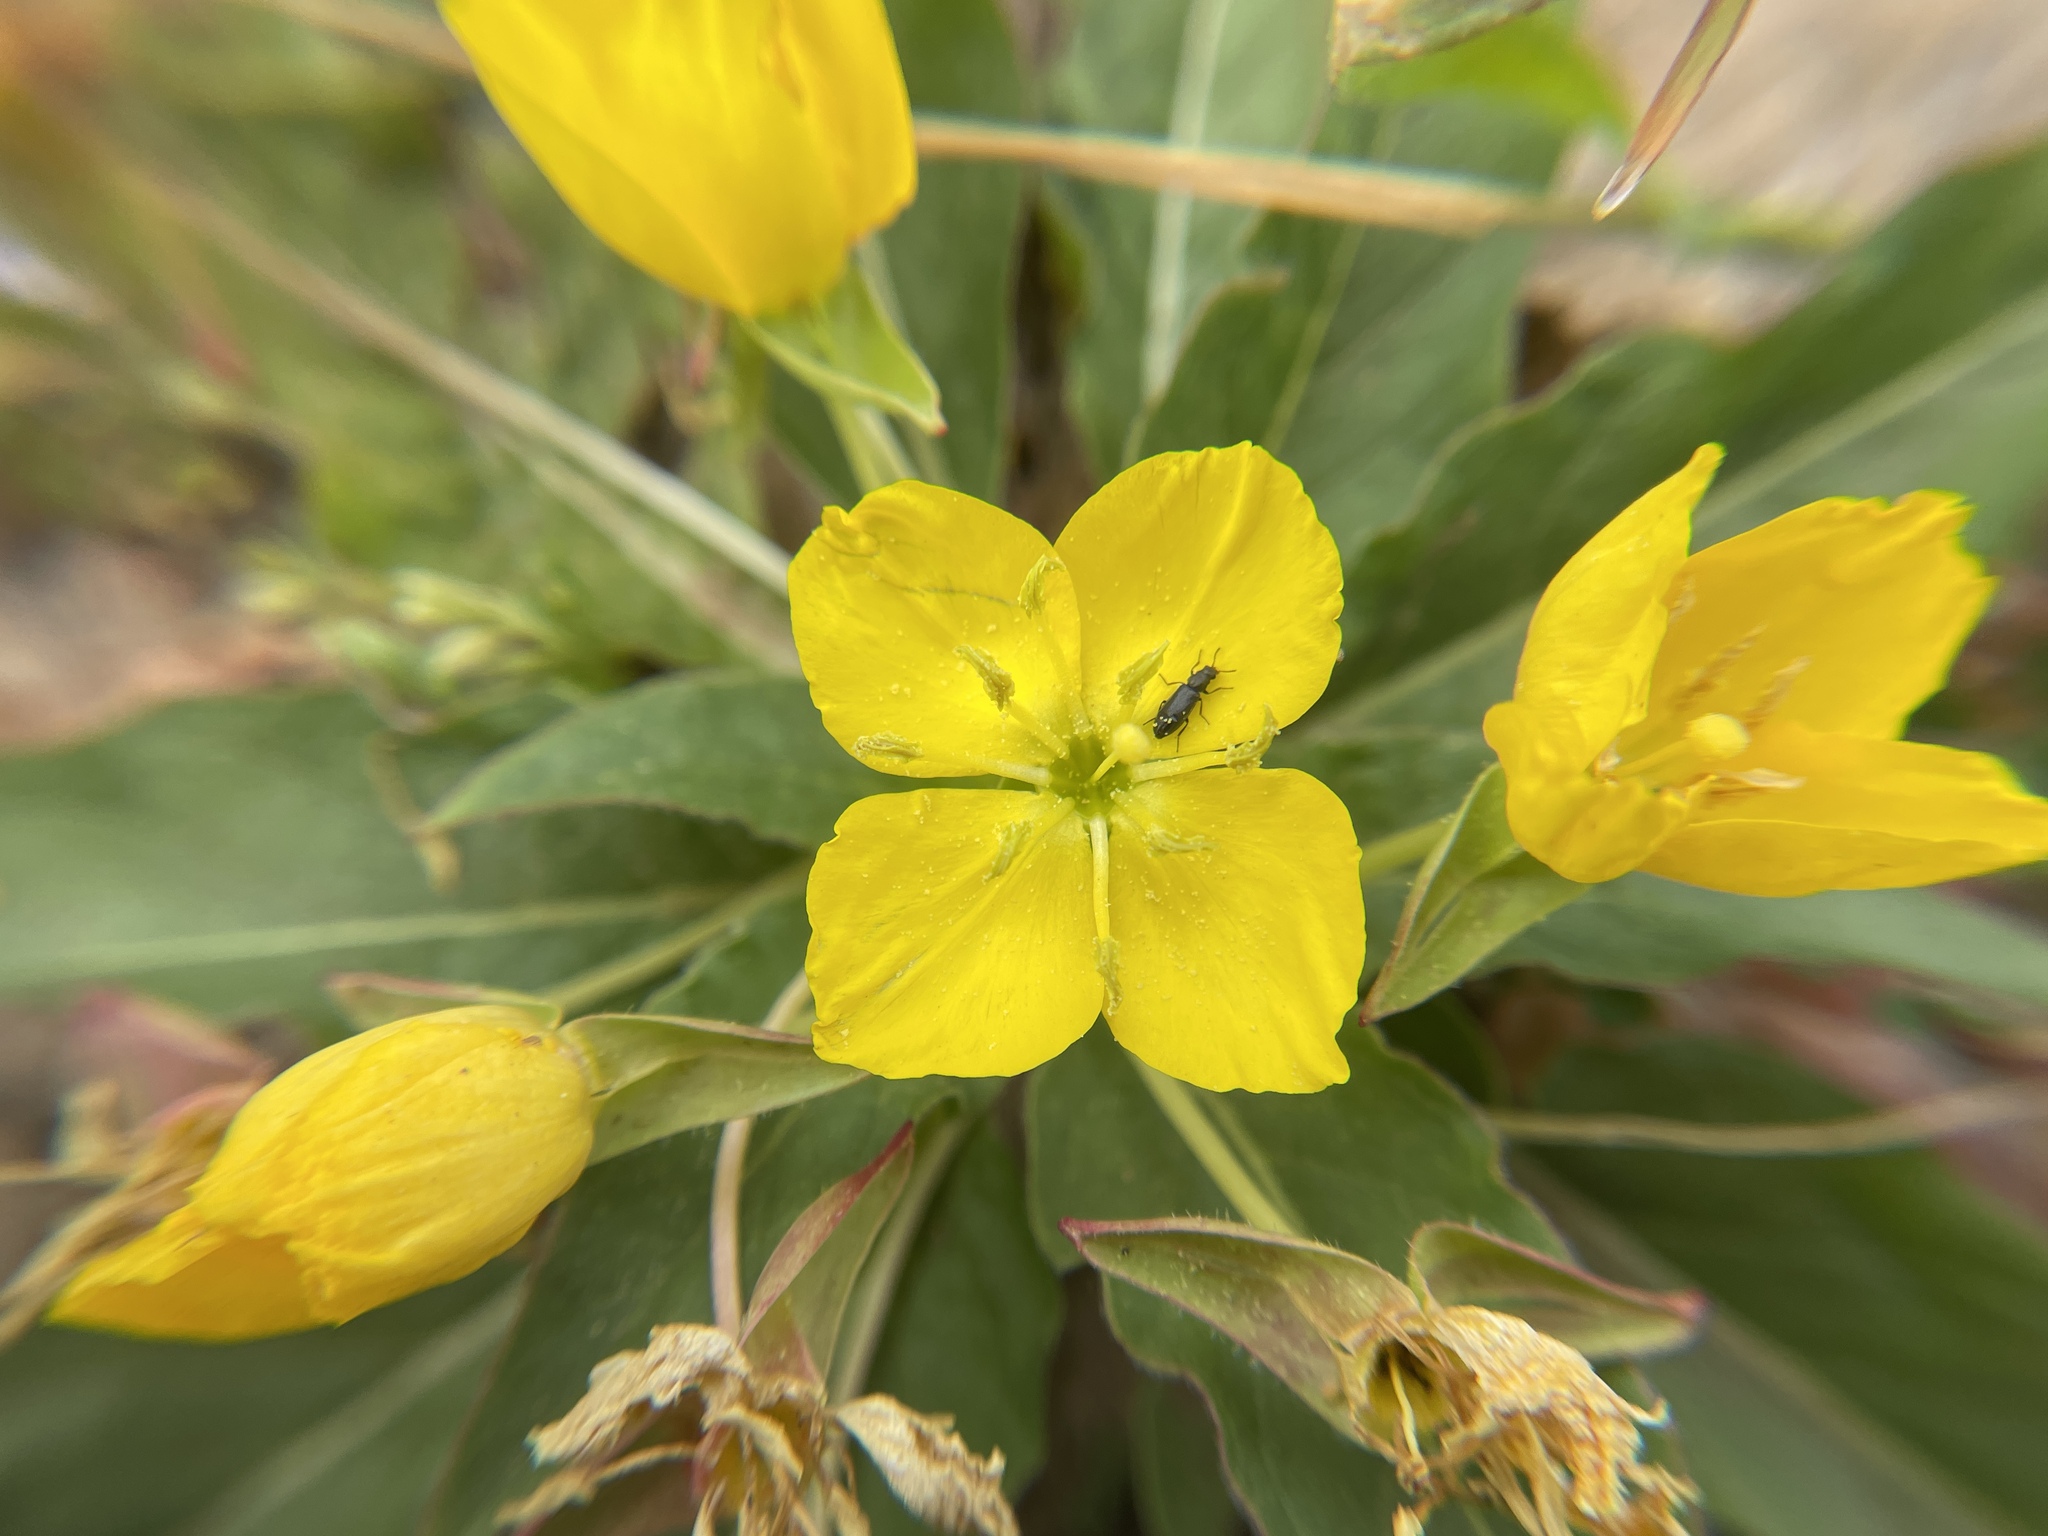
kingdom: Plantae
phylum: Tracheophyta
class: Magnoliopsida
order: Myrtales
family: Onagraceae
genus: Taraxia
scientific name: Taraxia ovata
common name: Goldeneggs
